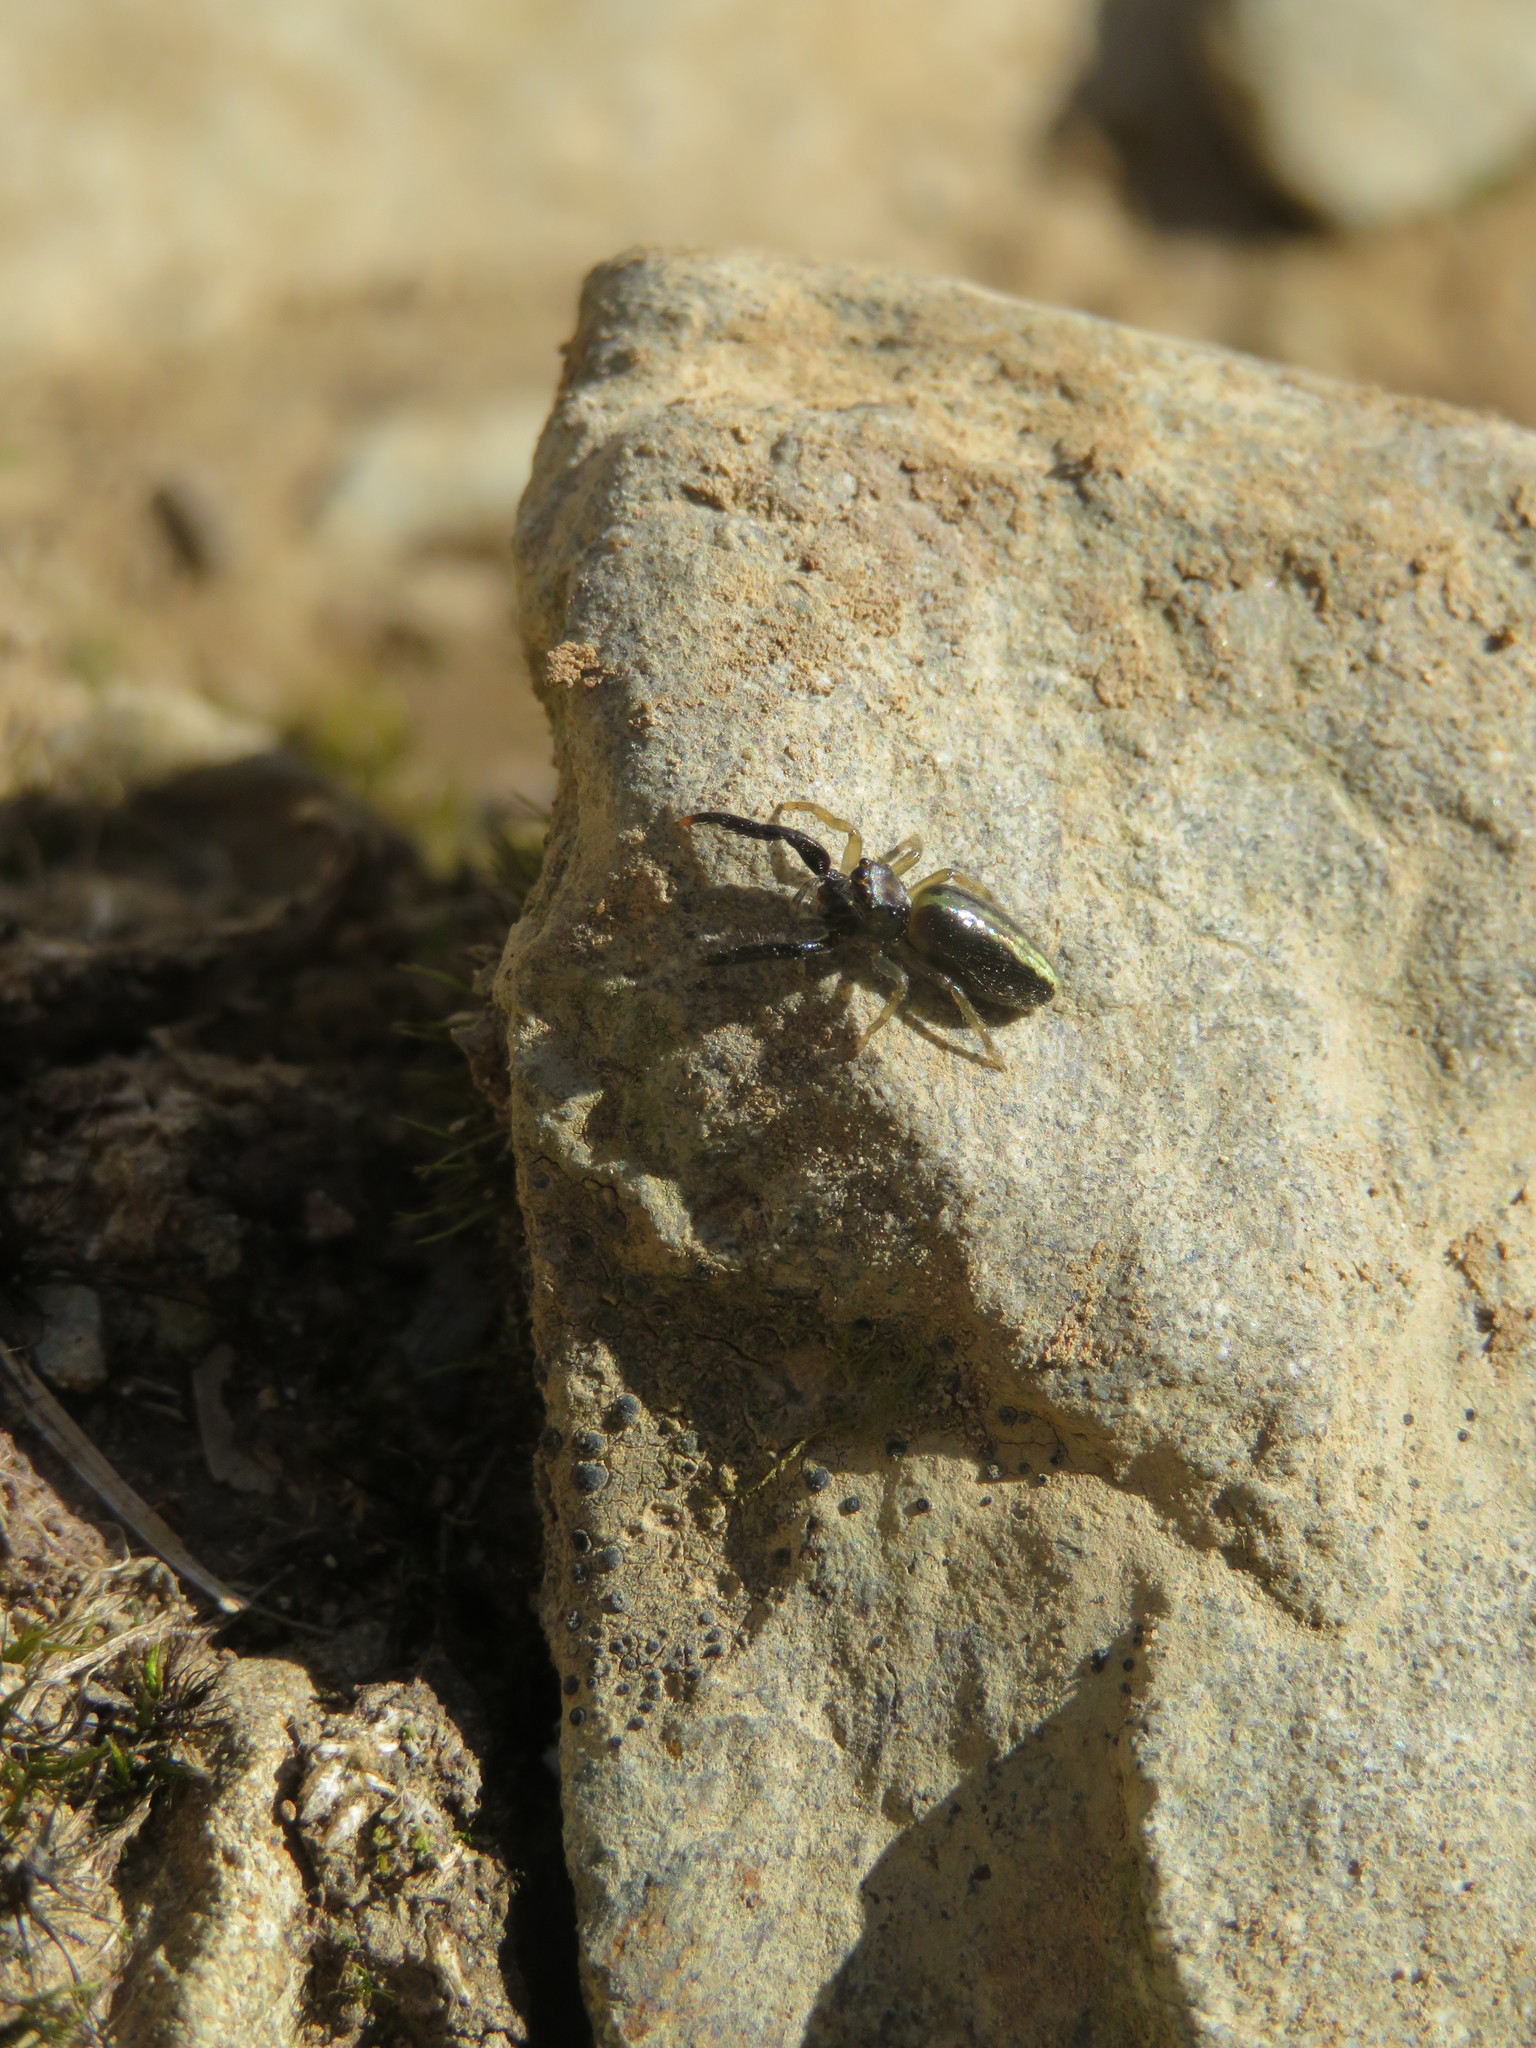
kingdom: Animalia
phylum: Arthropoda
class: Arachnida
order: Araneae
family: Salticidae
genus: Trite
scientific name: Trite planiceps
